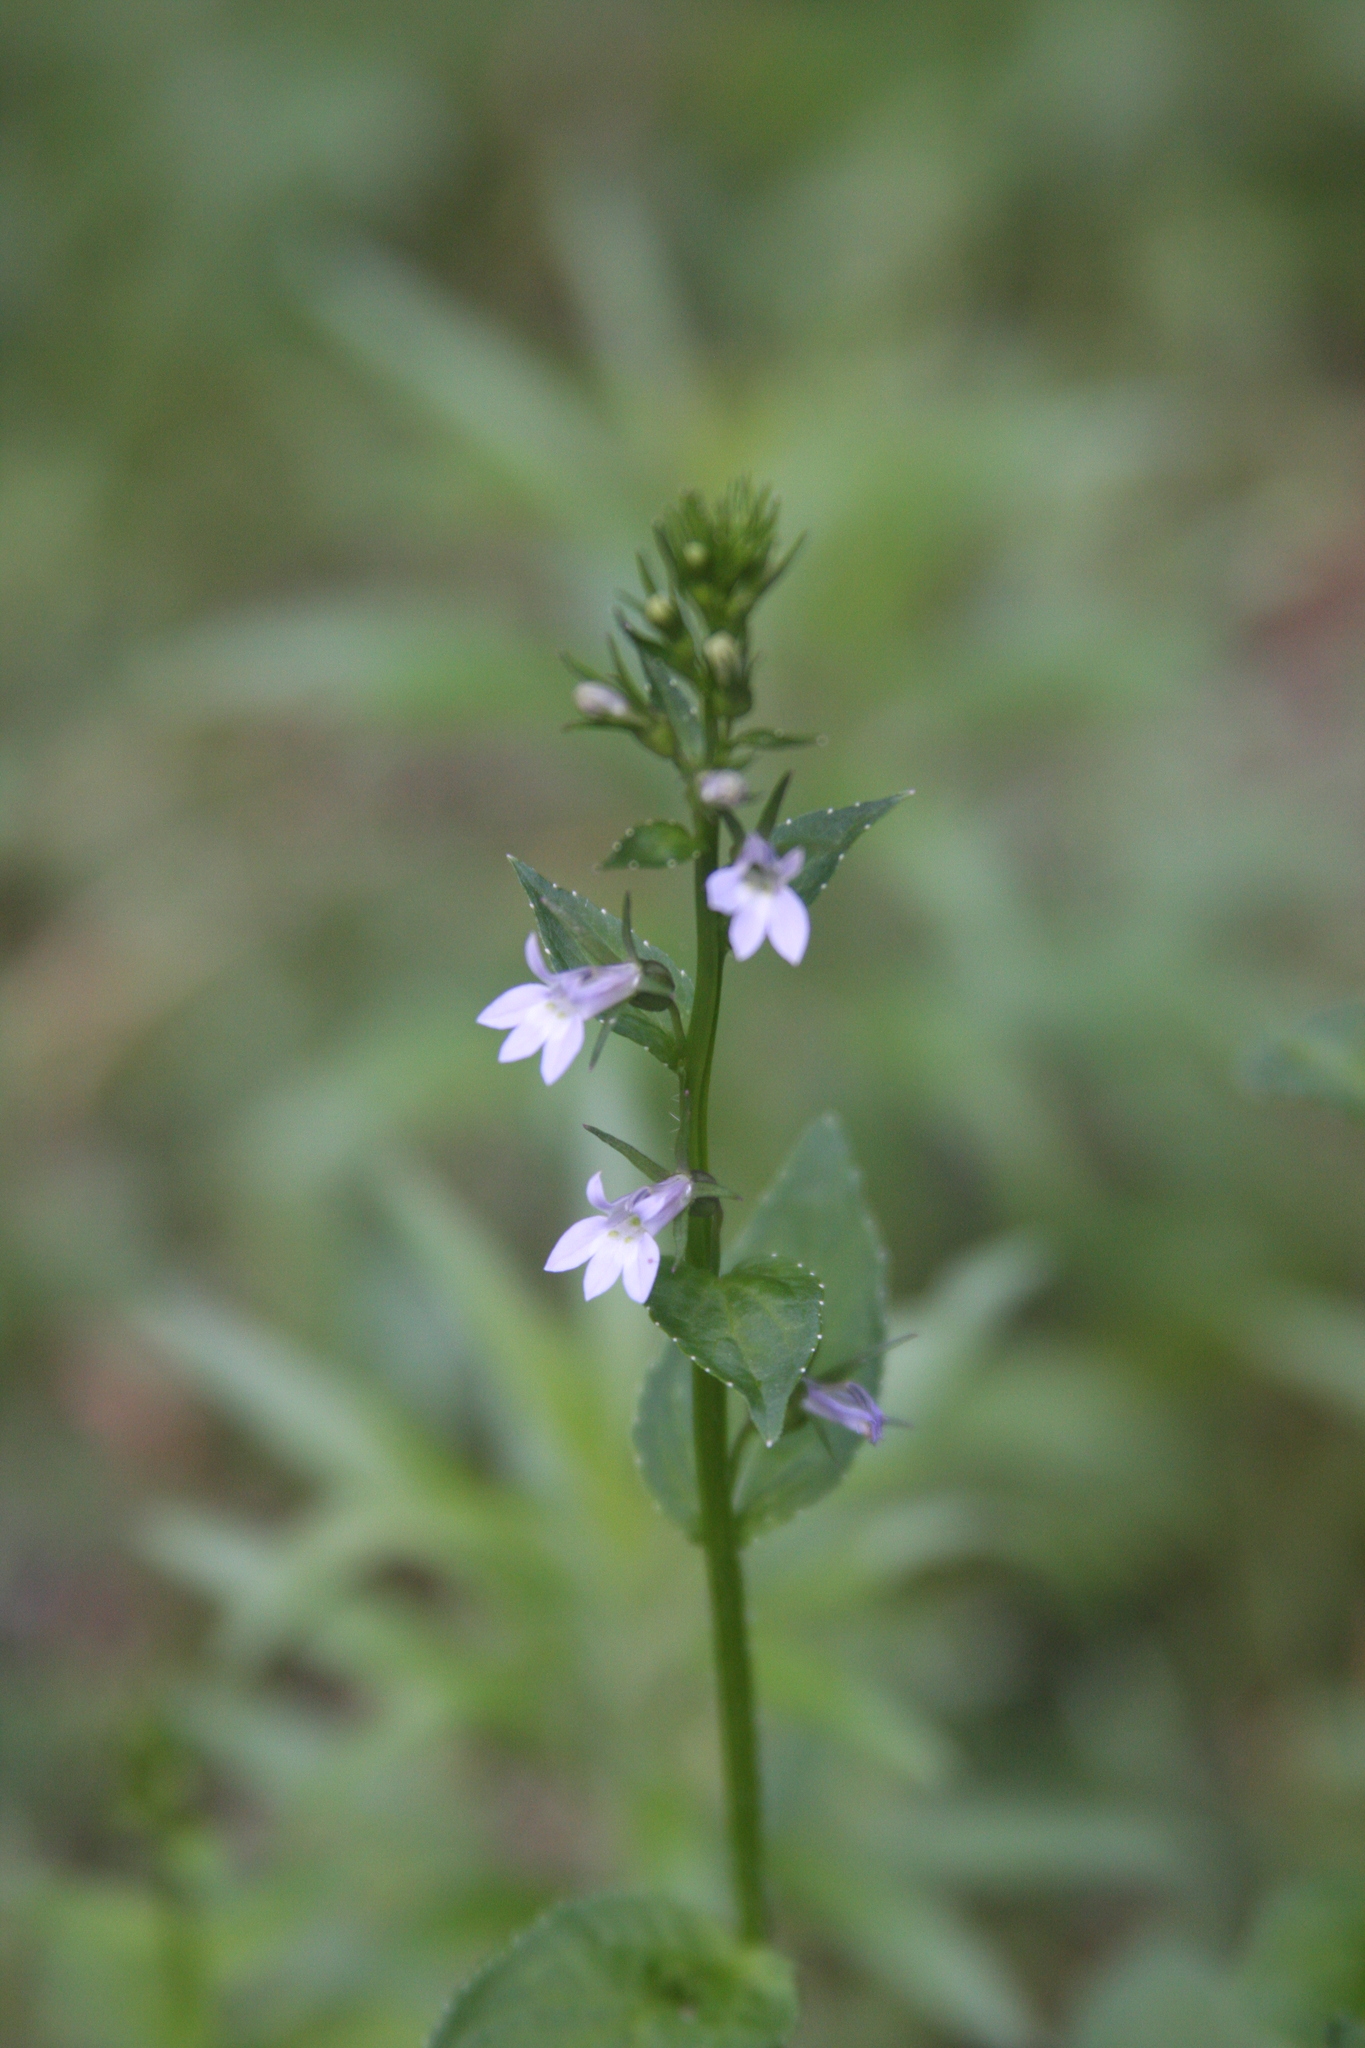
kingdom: Plantae
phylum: Tracheophyta
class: Magnoliopsida
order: Asterales
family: Campanulaceae
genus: Lobelia
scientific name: Lobelia inflata
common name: Indian tobacco
